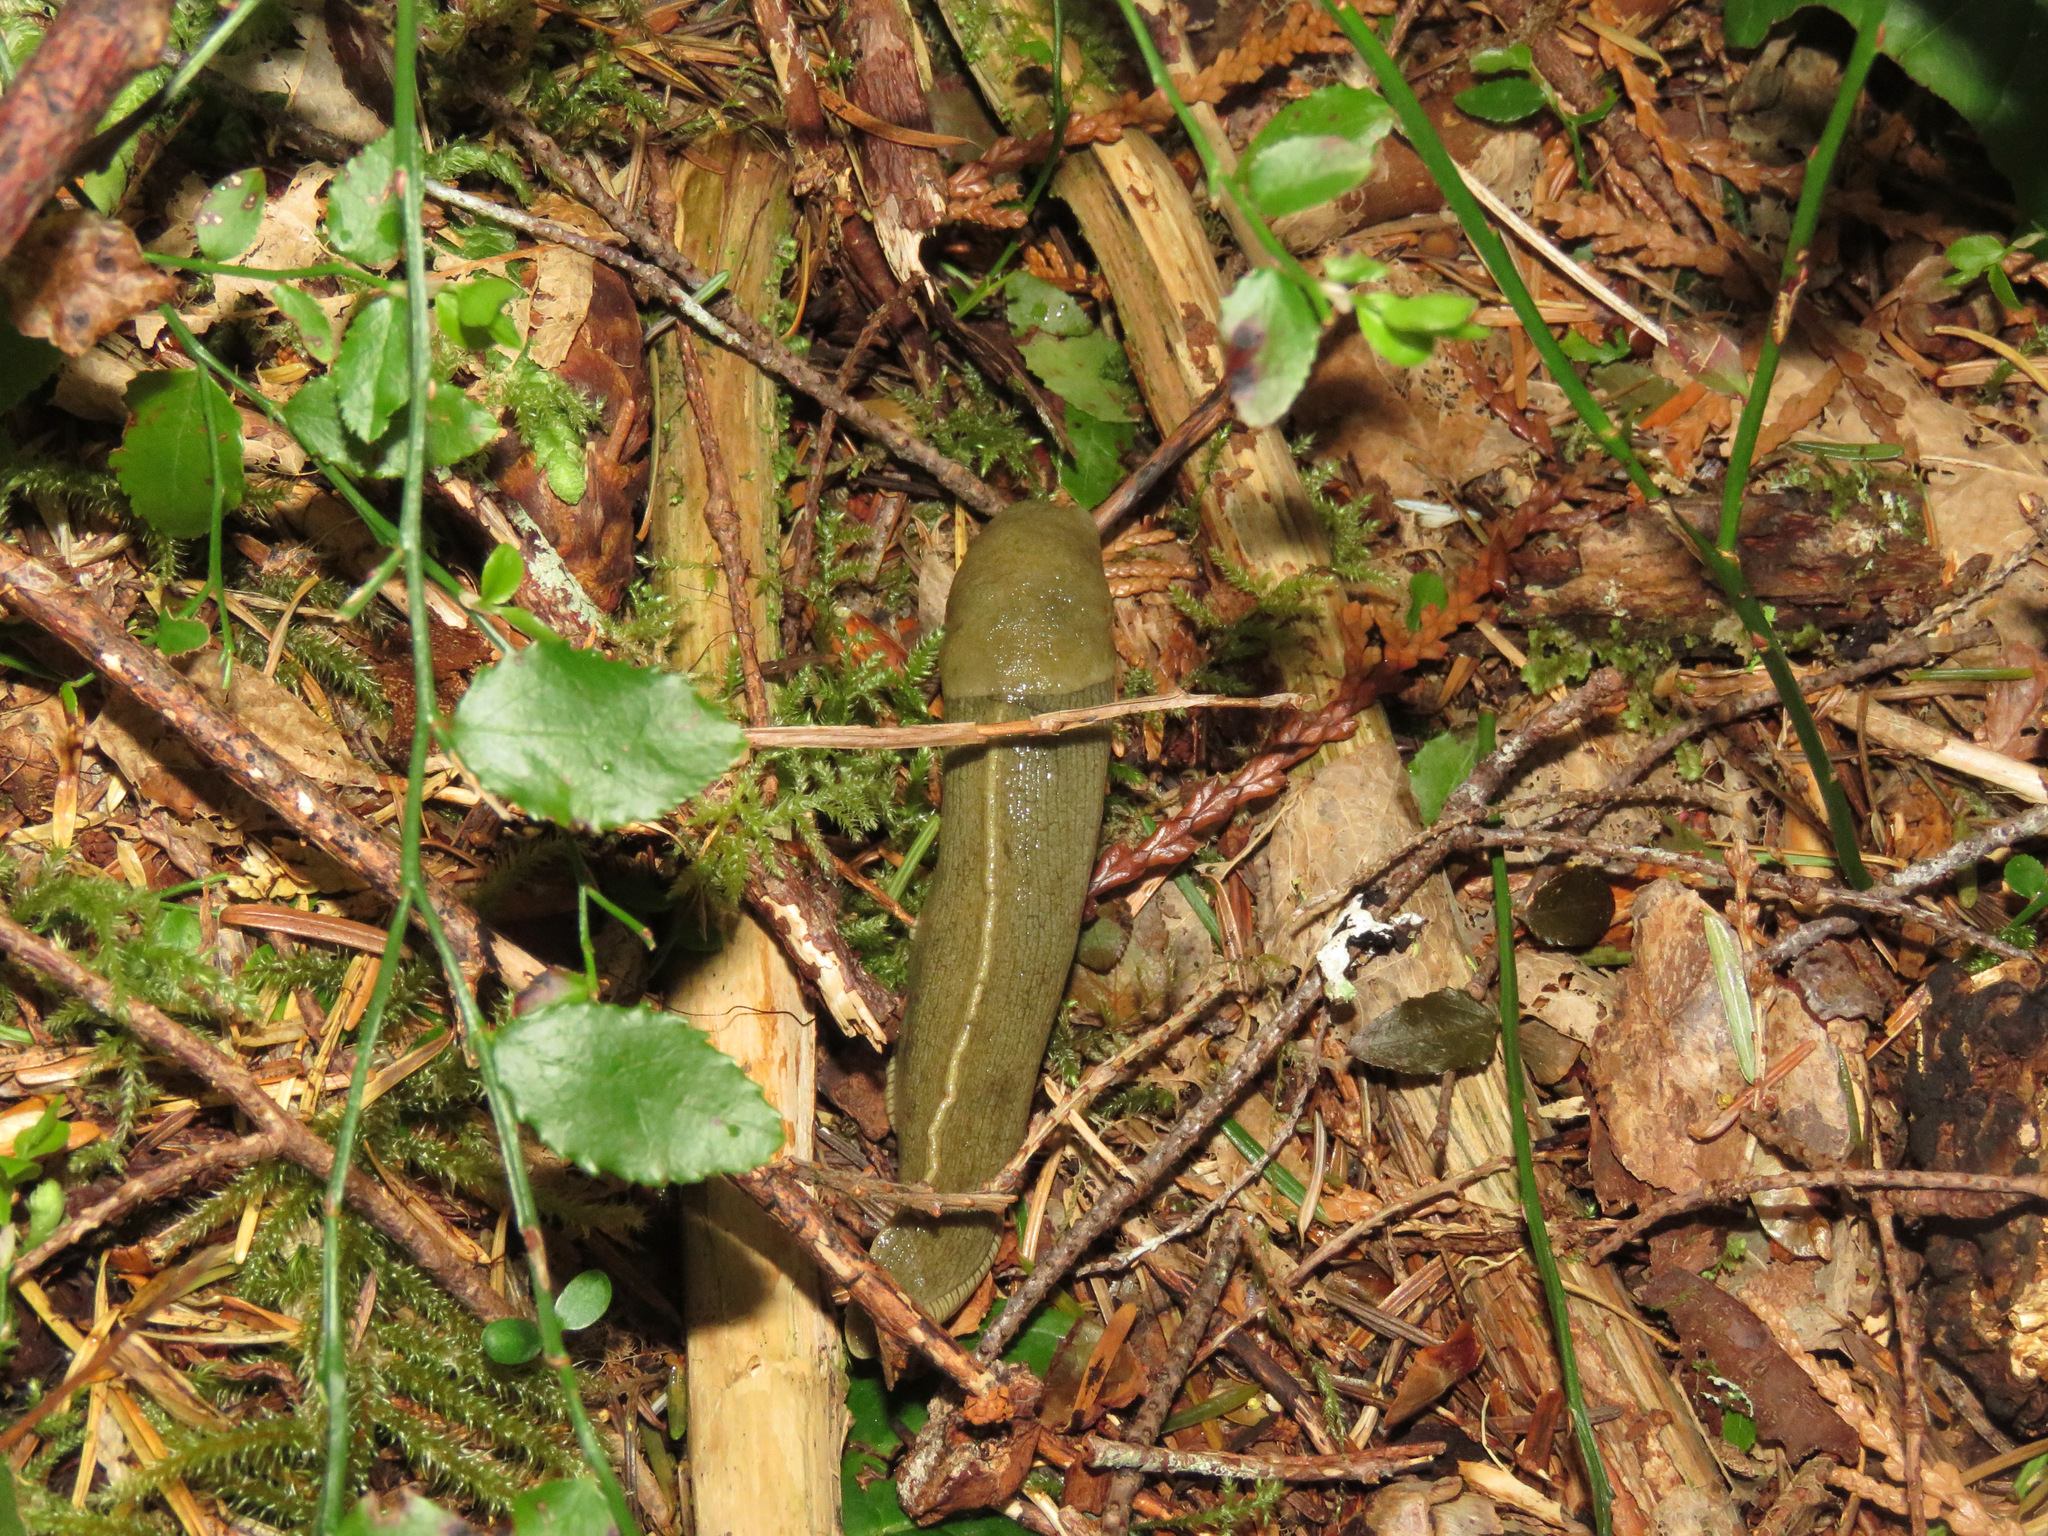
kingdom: Animalia
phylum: Mollusca
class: Gastropoda
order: Stylommatophora
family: Ariolimacidae
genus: Ariolimax
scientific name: Ariolimax columbianus
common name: Pacific banana slug
